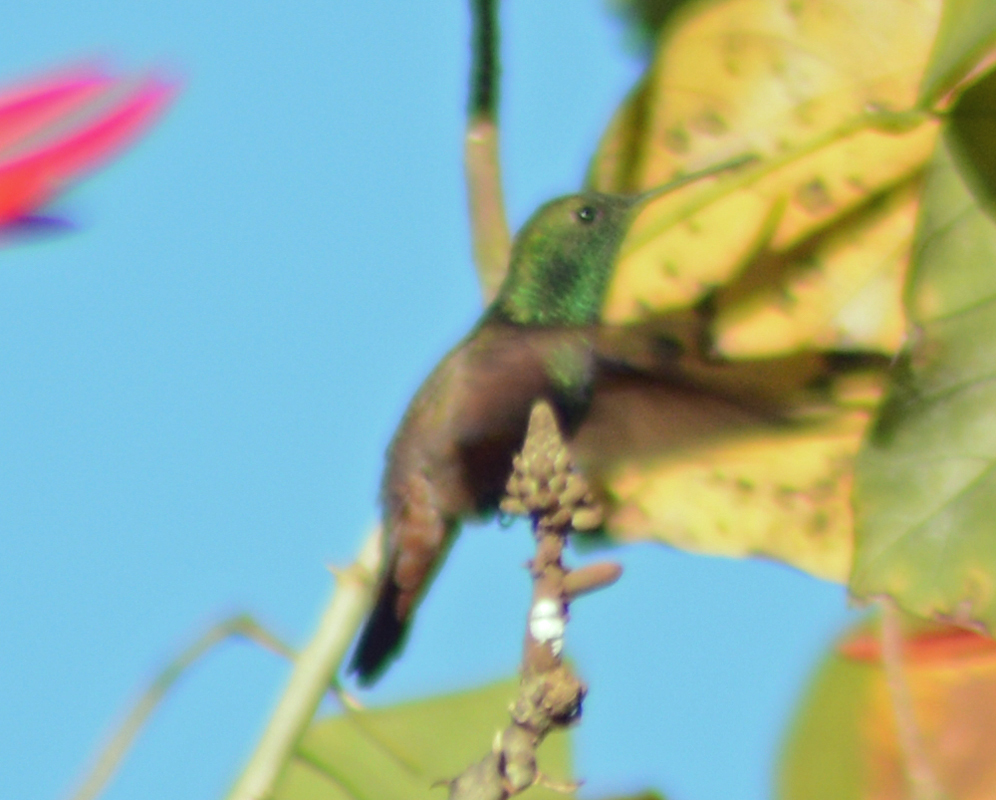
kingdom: Animalia
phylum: Chordata
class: Aves
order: Apodiformes
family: Trochilidae
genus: Saucerottia
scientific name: Saucerottia beryllina
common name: Berylline hummingbird
